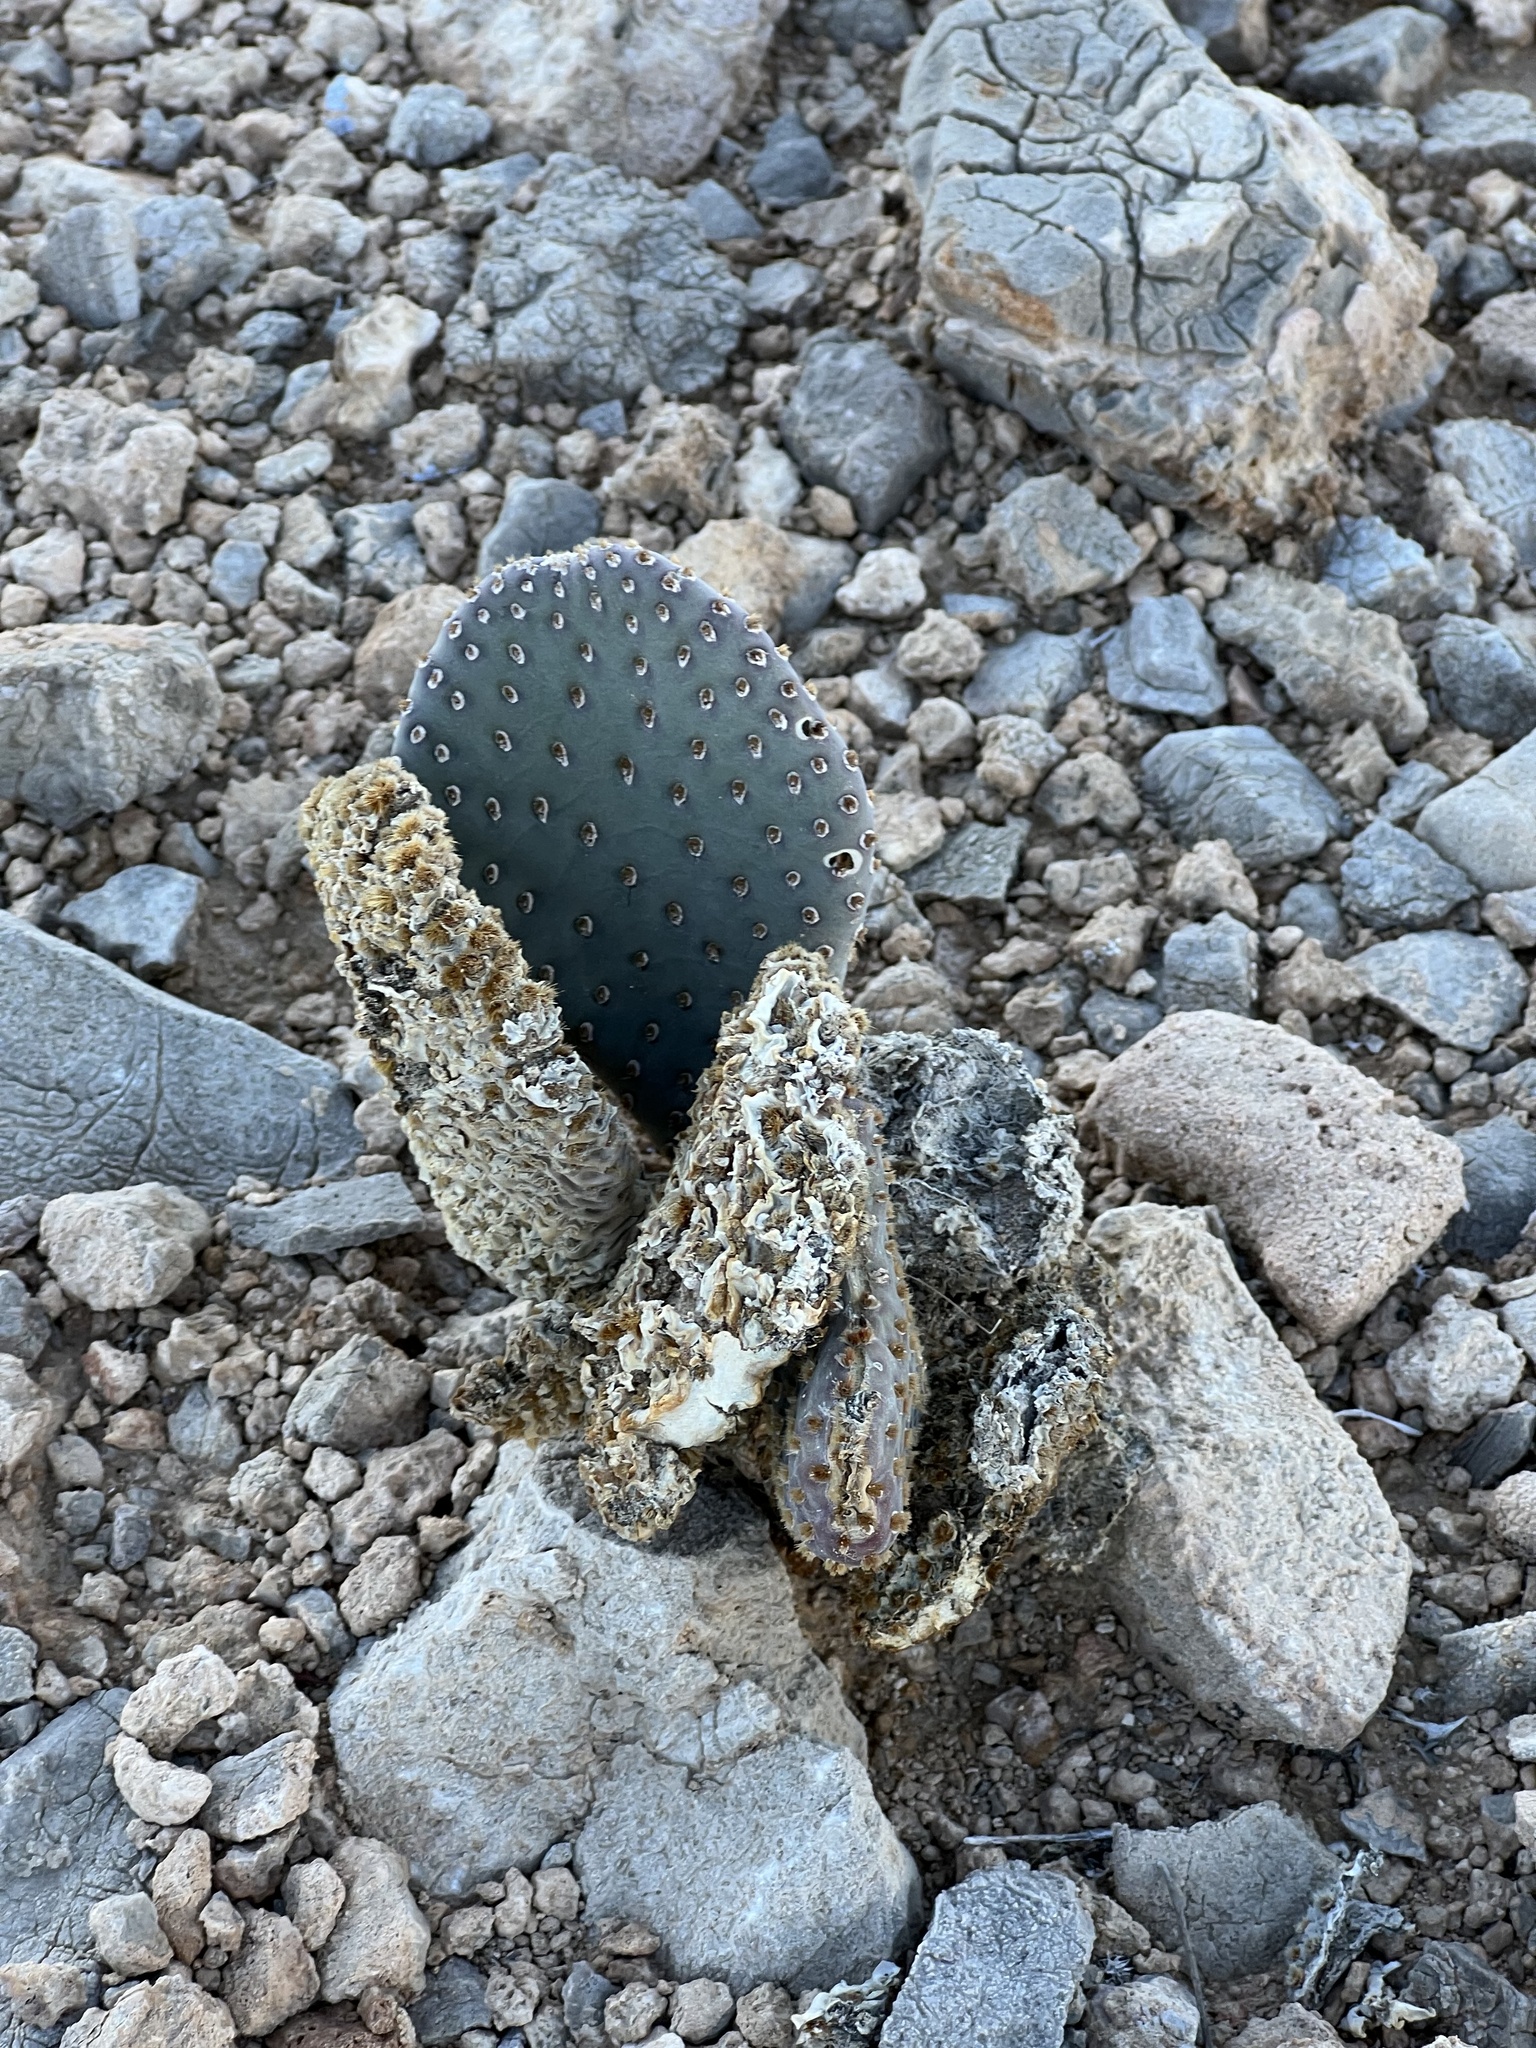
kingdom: Plantae
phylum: Tracheophyta
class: Magnoliopsida
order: Caryophyllales
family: Cactaceae
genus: Opuntia
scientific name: Opuntia basilaris
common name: Beavertail prickly-pear
